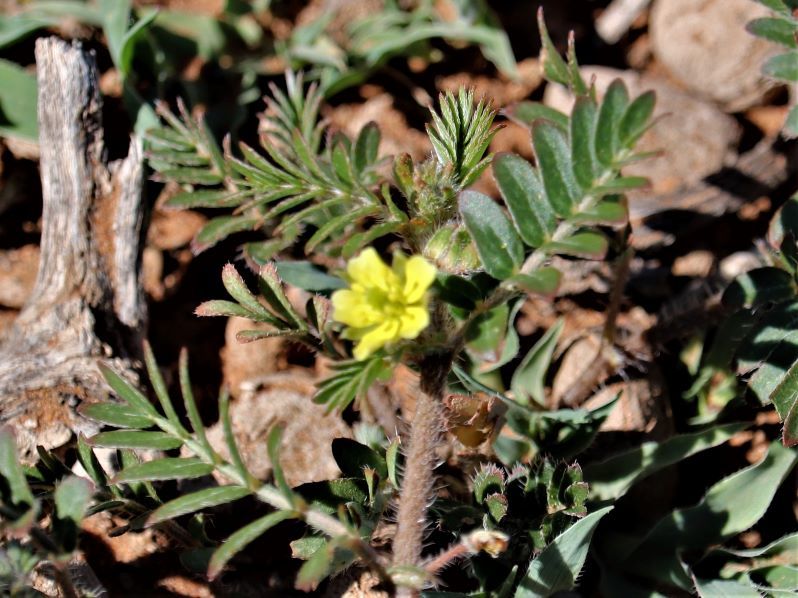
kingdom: Plantae
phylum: Tracheophyta
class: Magnoliopsida
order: Zygophyllales
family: Zygophyllaceae
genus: Tribulus
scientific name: Tribulus terrestris
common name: Puncturevine
